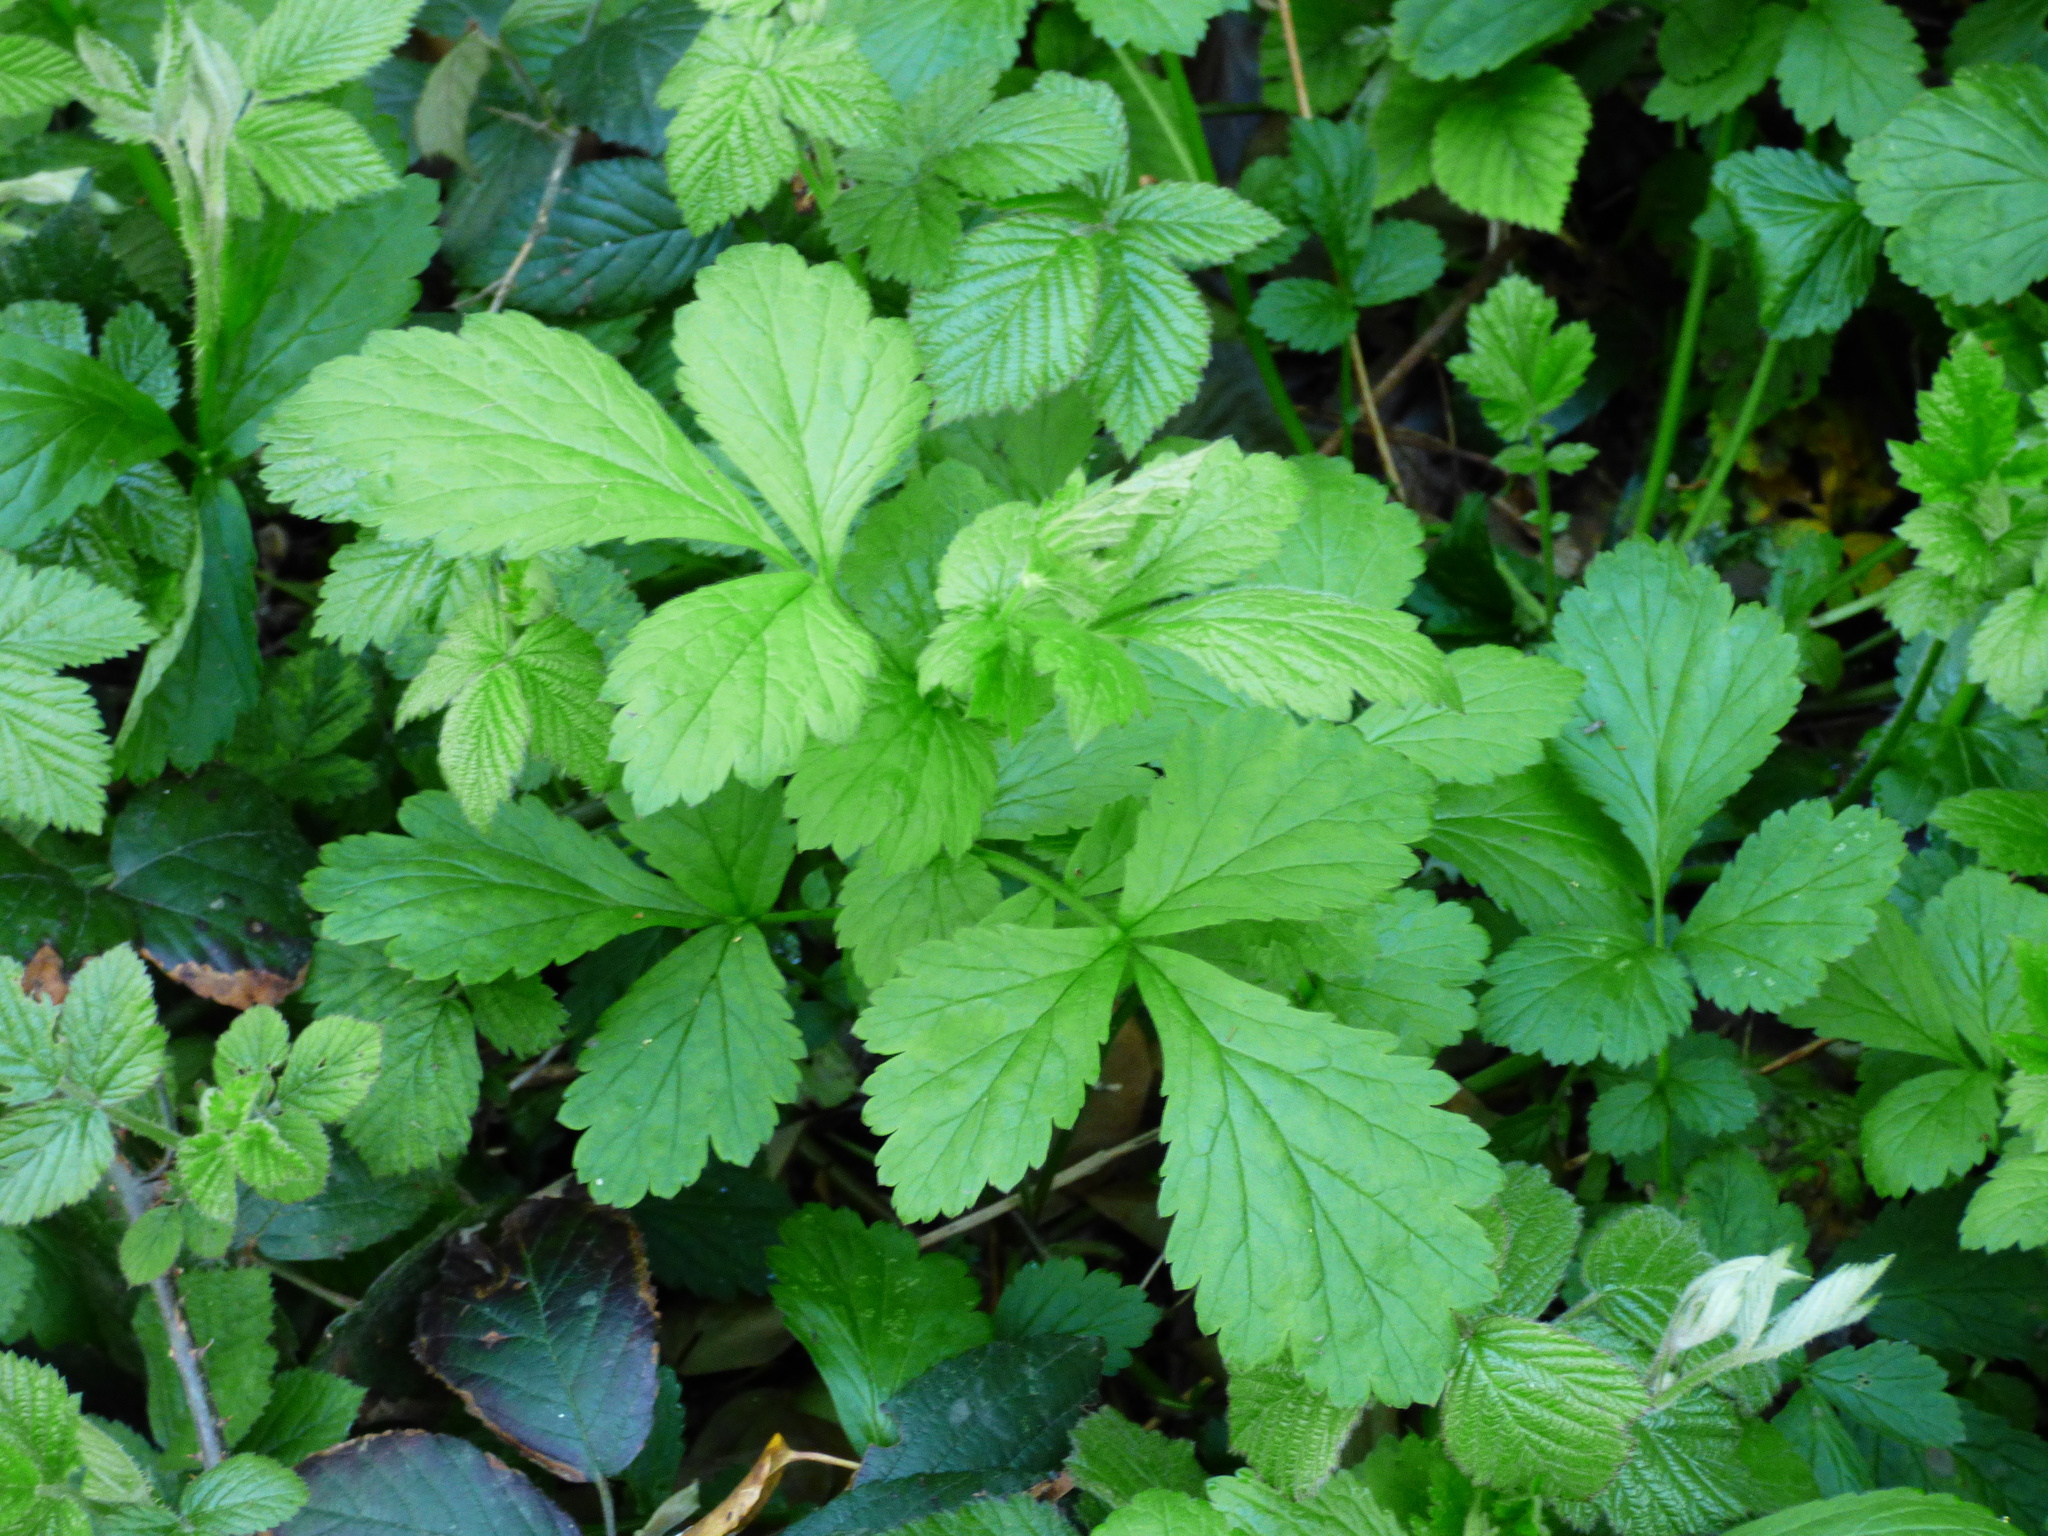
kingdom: Plantae
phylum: Tracheophyta
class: Magnoliopsida
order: Rosales
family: Rosaceae
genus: Geum
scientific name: Geum urbanum
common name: Wood avens
